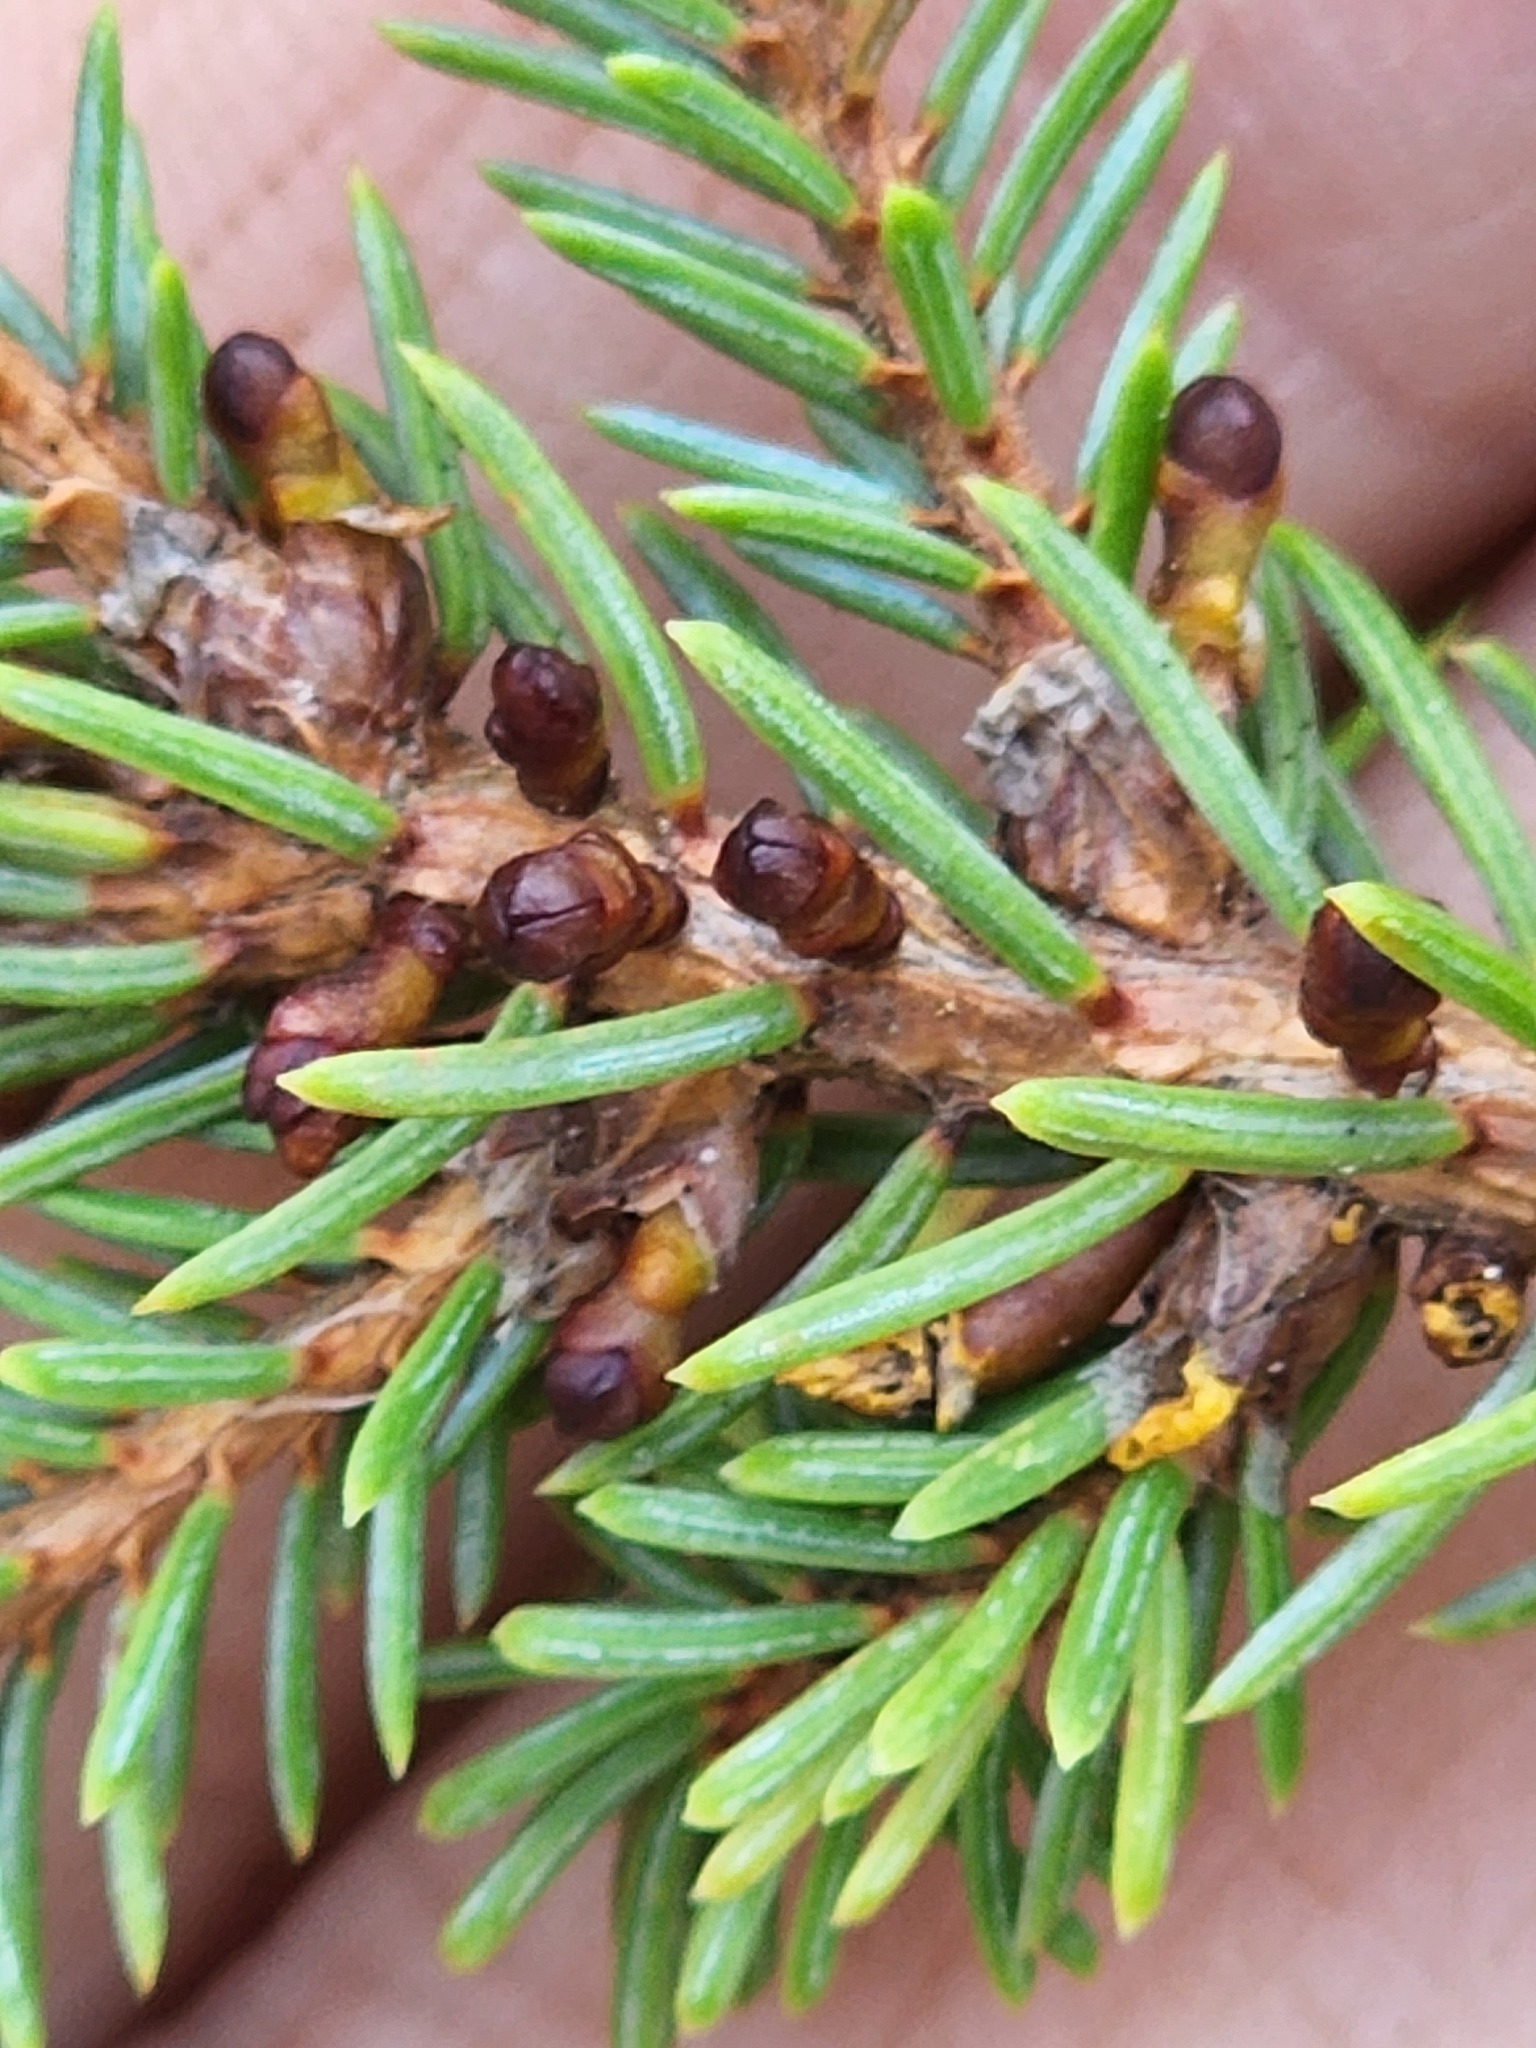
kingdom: Plantae
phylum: Tracheophyta
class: Magnoliopsida
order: Santalales
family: Viscaceae
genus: Arceuthobium
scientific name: Arceuthobium pusillum
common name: Dwarf-mistletoe
